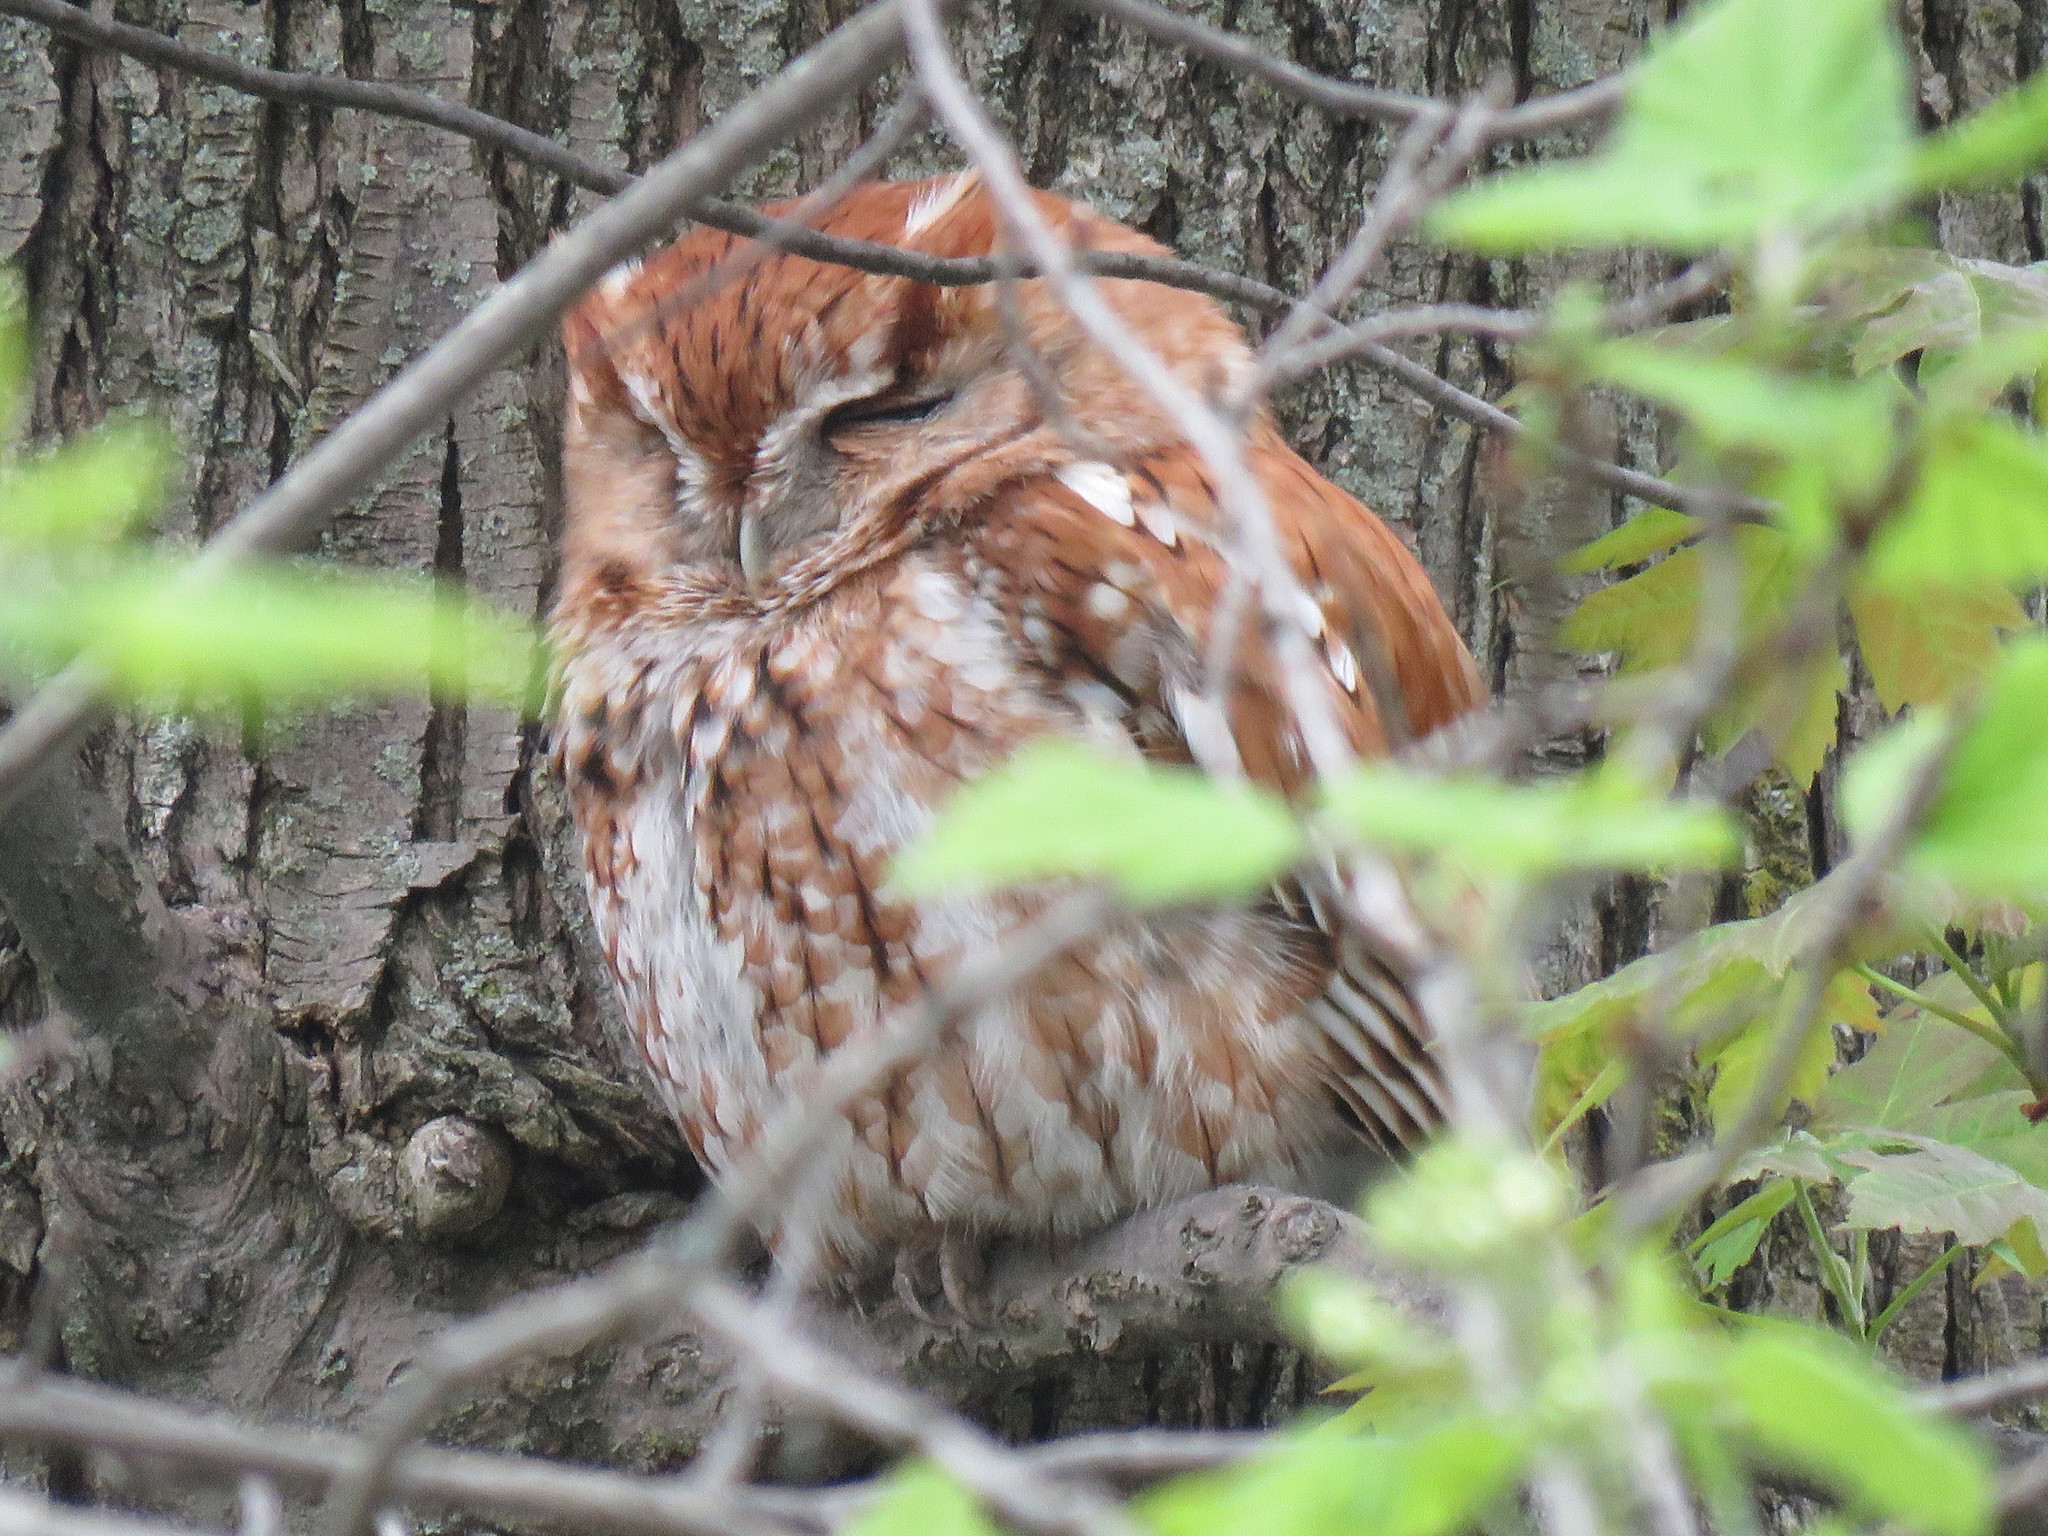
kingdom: Animalia
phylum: Chordata
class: Aves
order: Strigiformes
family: Strigidae
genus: Megascops
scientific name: Megascops asio
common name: Eastern screech-owl
